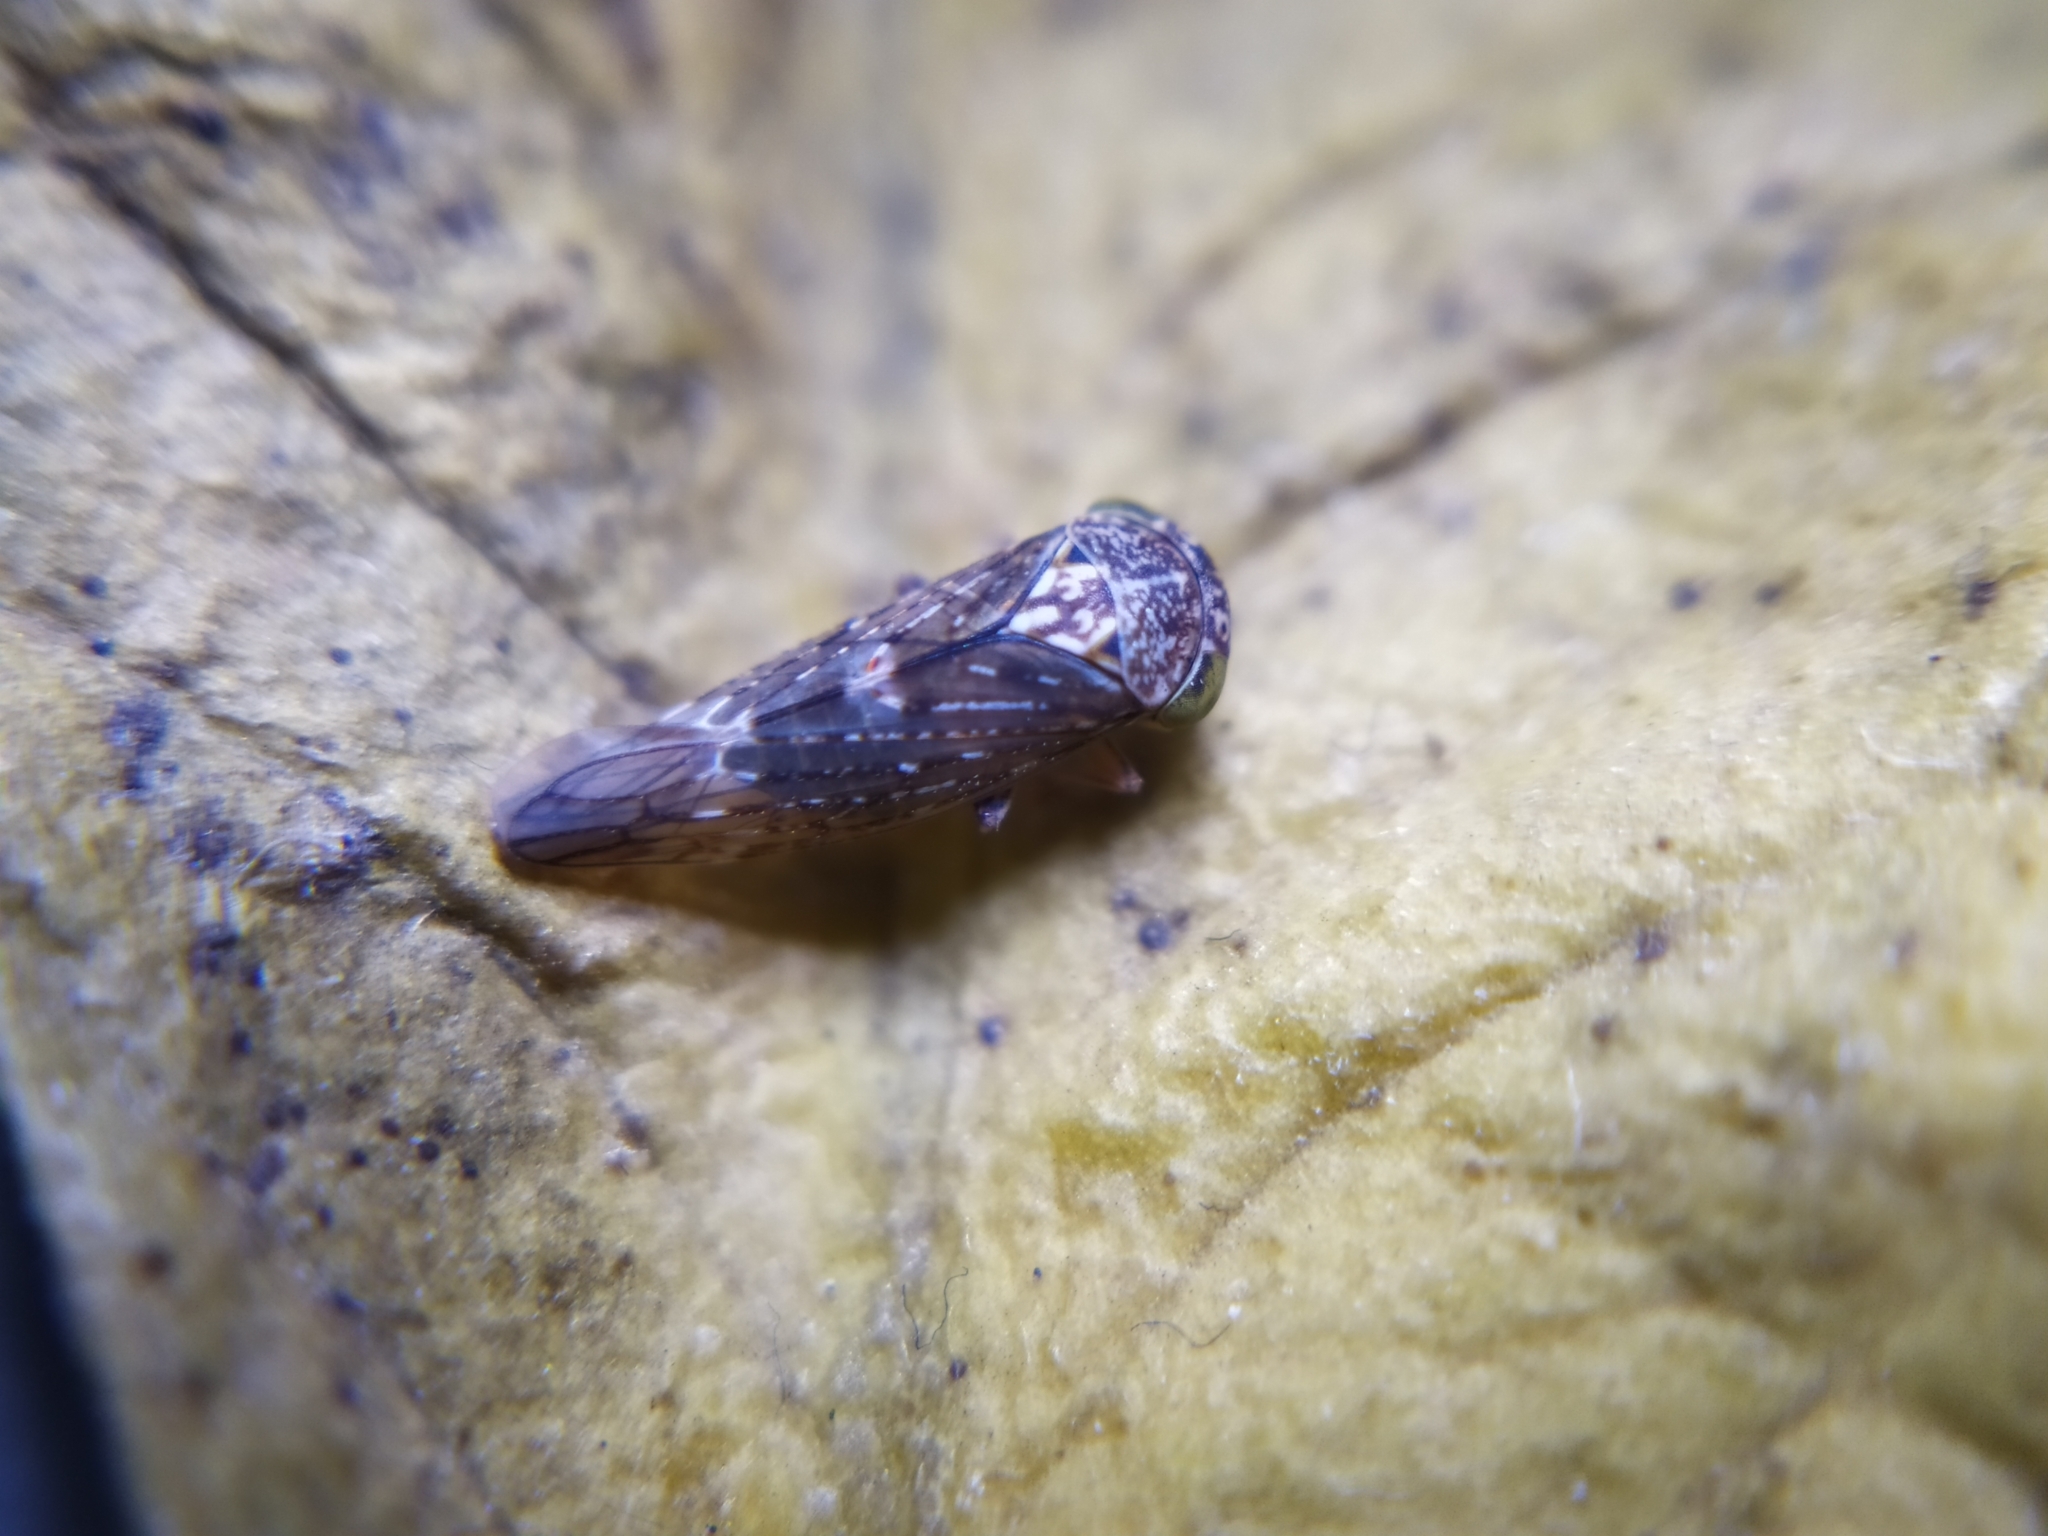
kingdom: Animalia
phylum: Arthropoda
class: Insecta
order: Hemiptera
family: Cicadellidae
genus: Acericerus
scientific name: Acericerus ribauti
